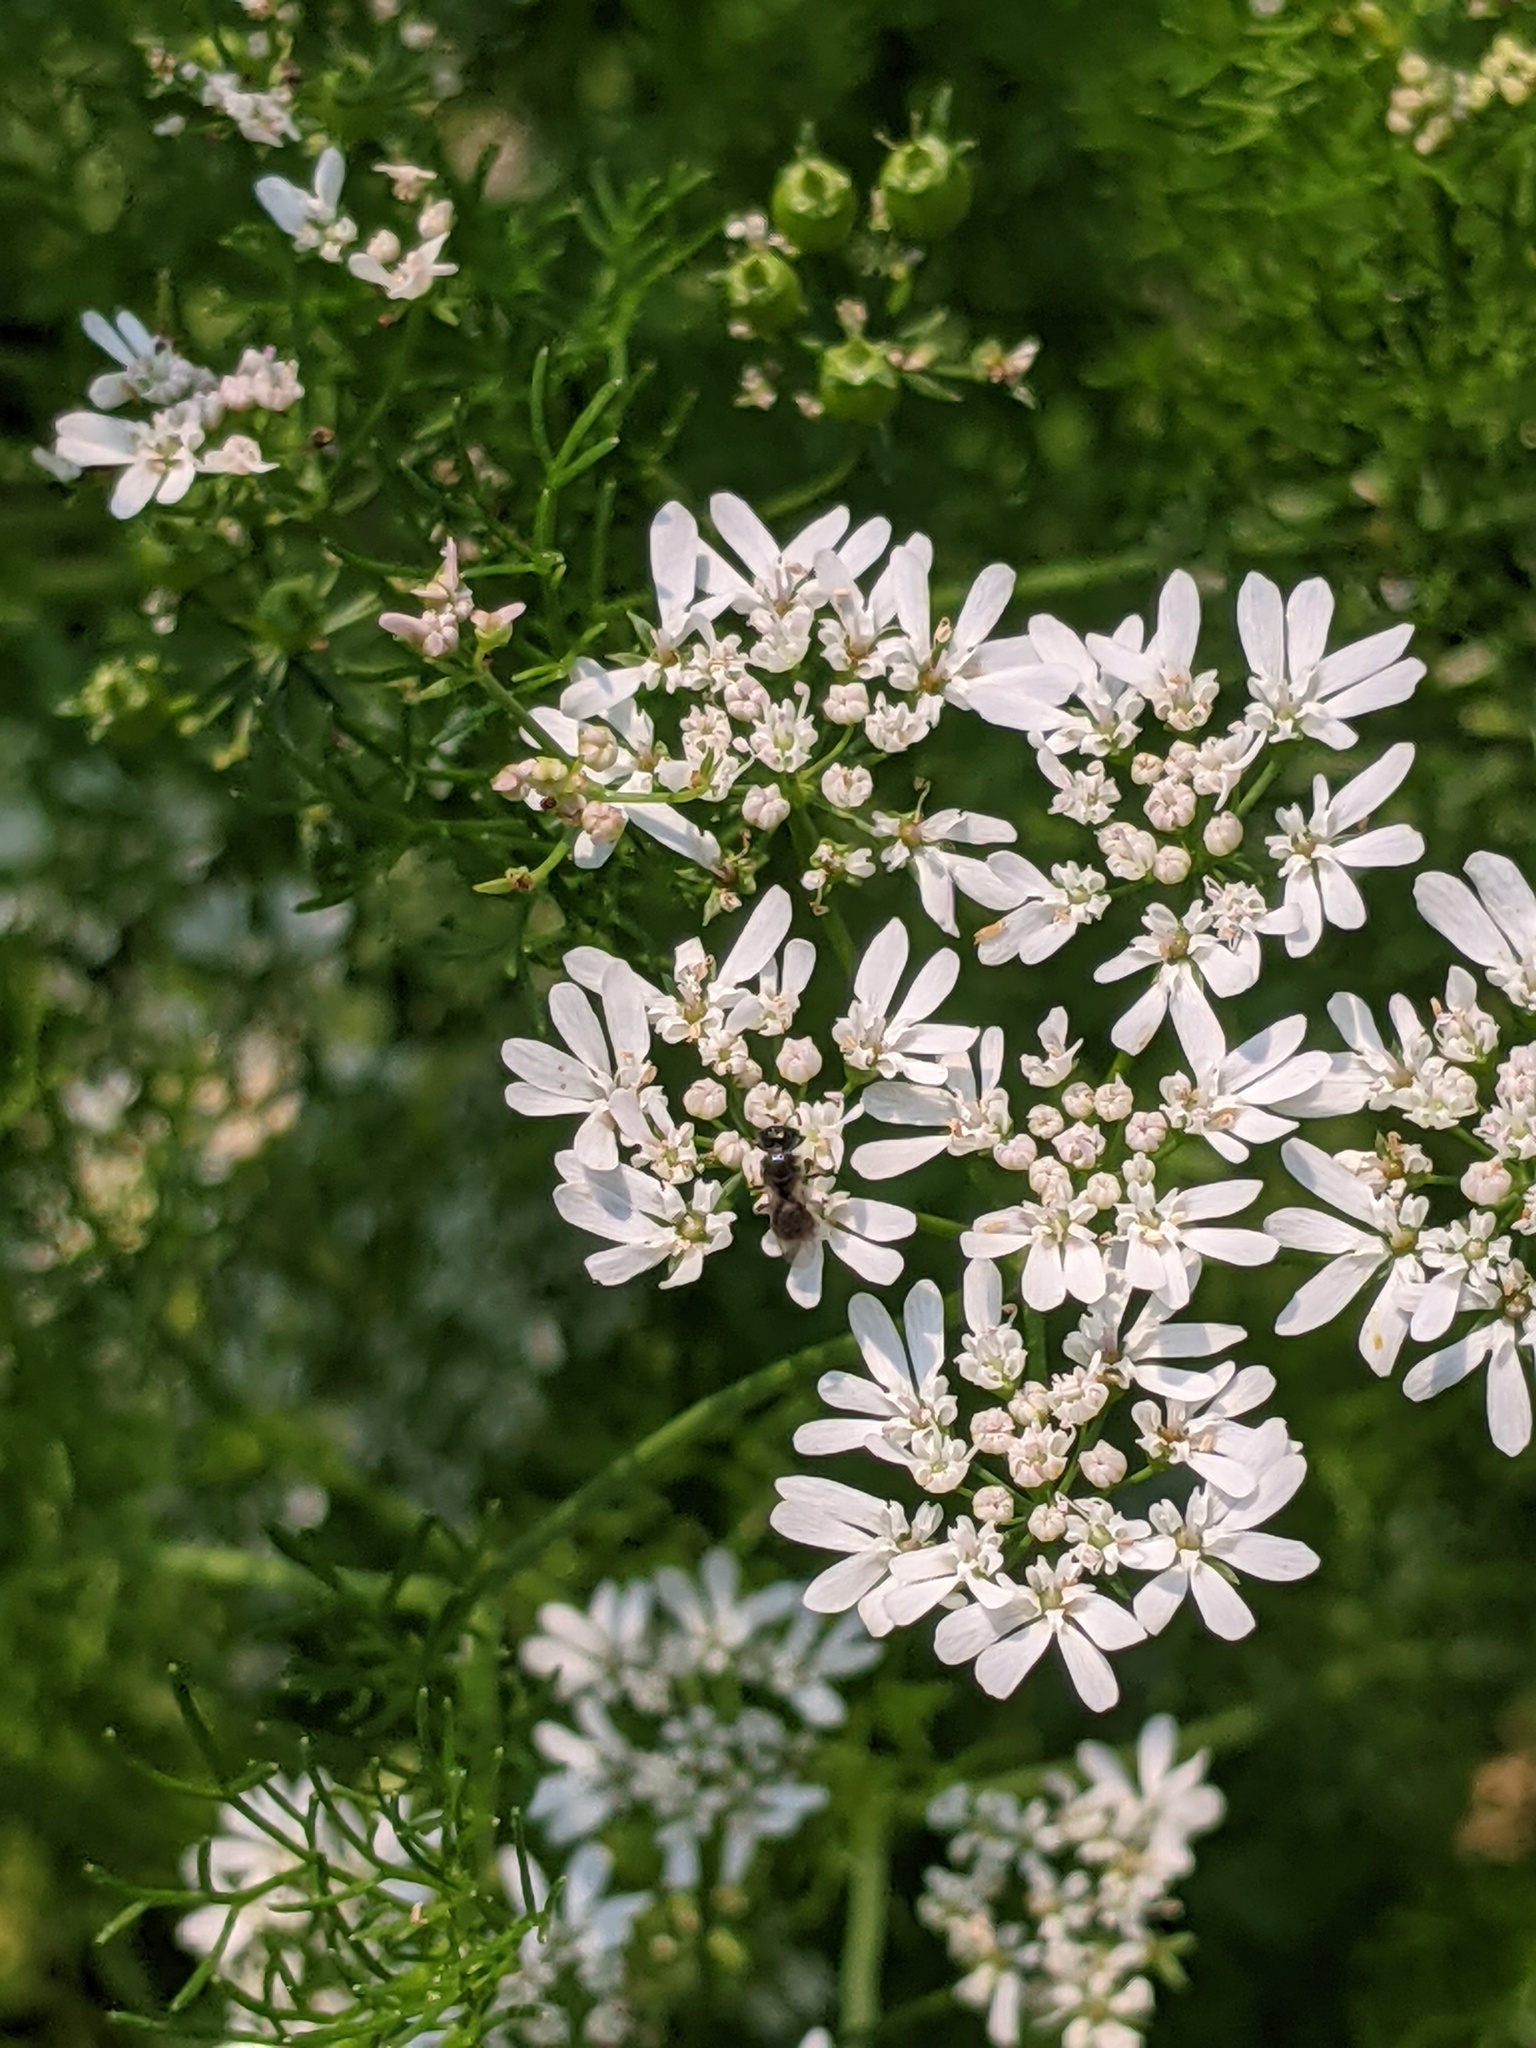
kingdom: Animalia
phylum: Arthropoda
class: Insecta
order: Hymenoptera
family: Halictidae
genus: Lasioglossum
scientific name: Lasioglossum
